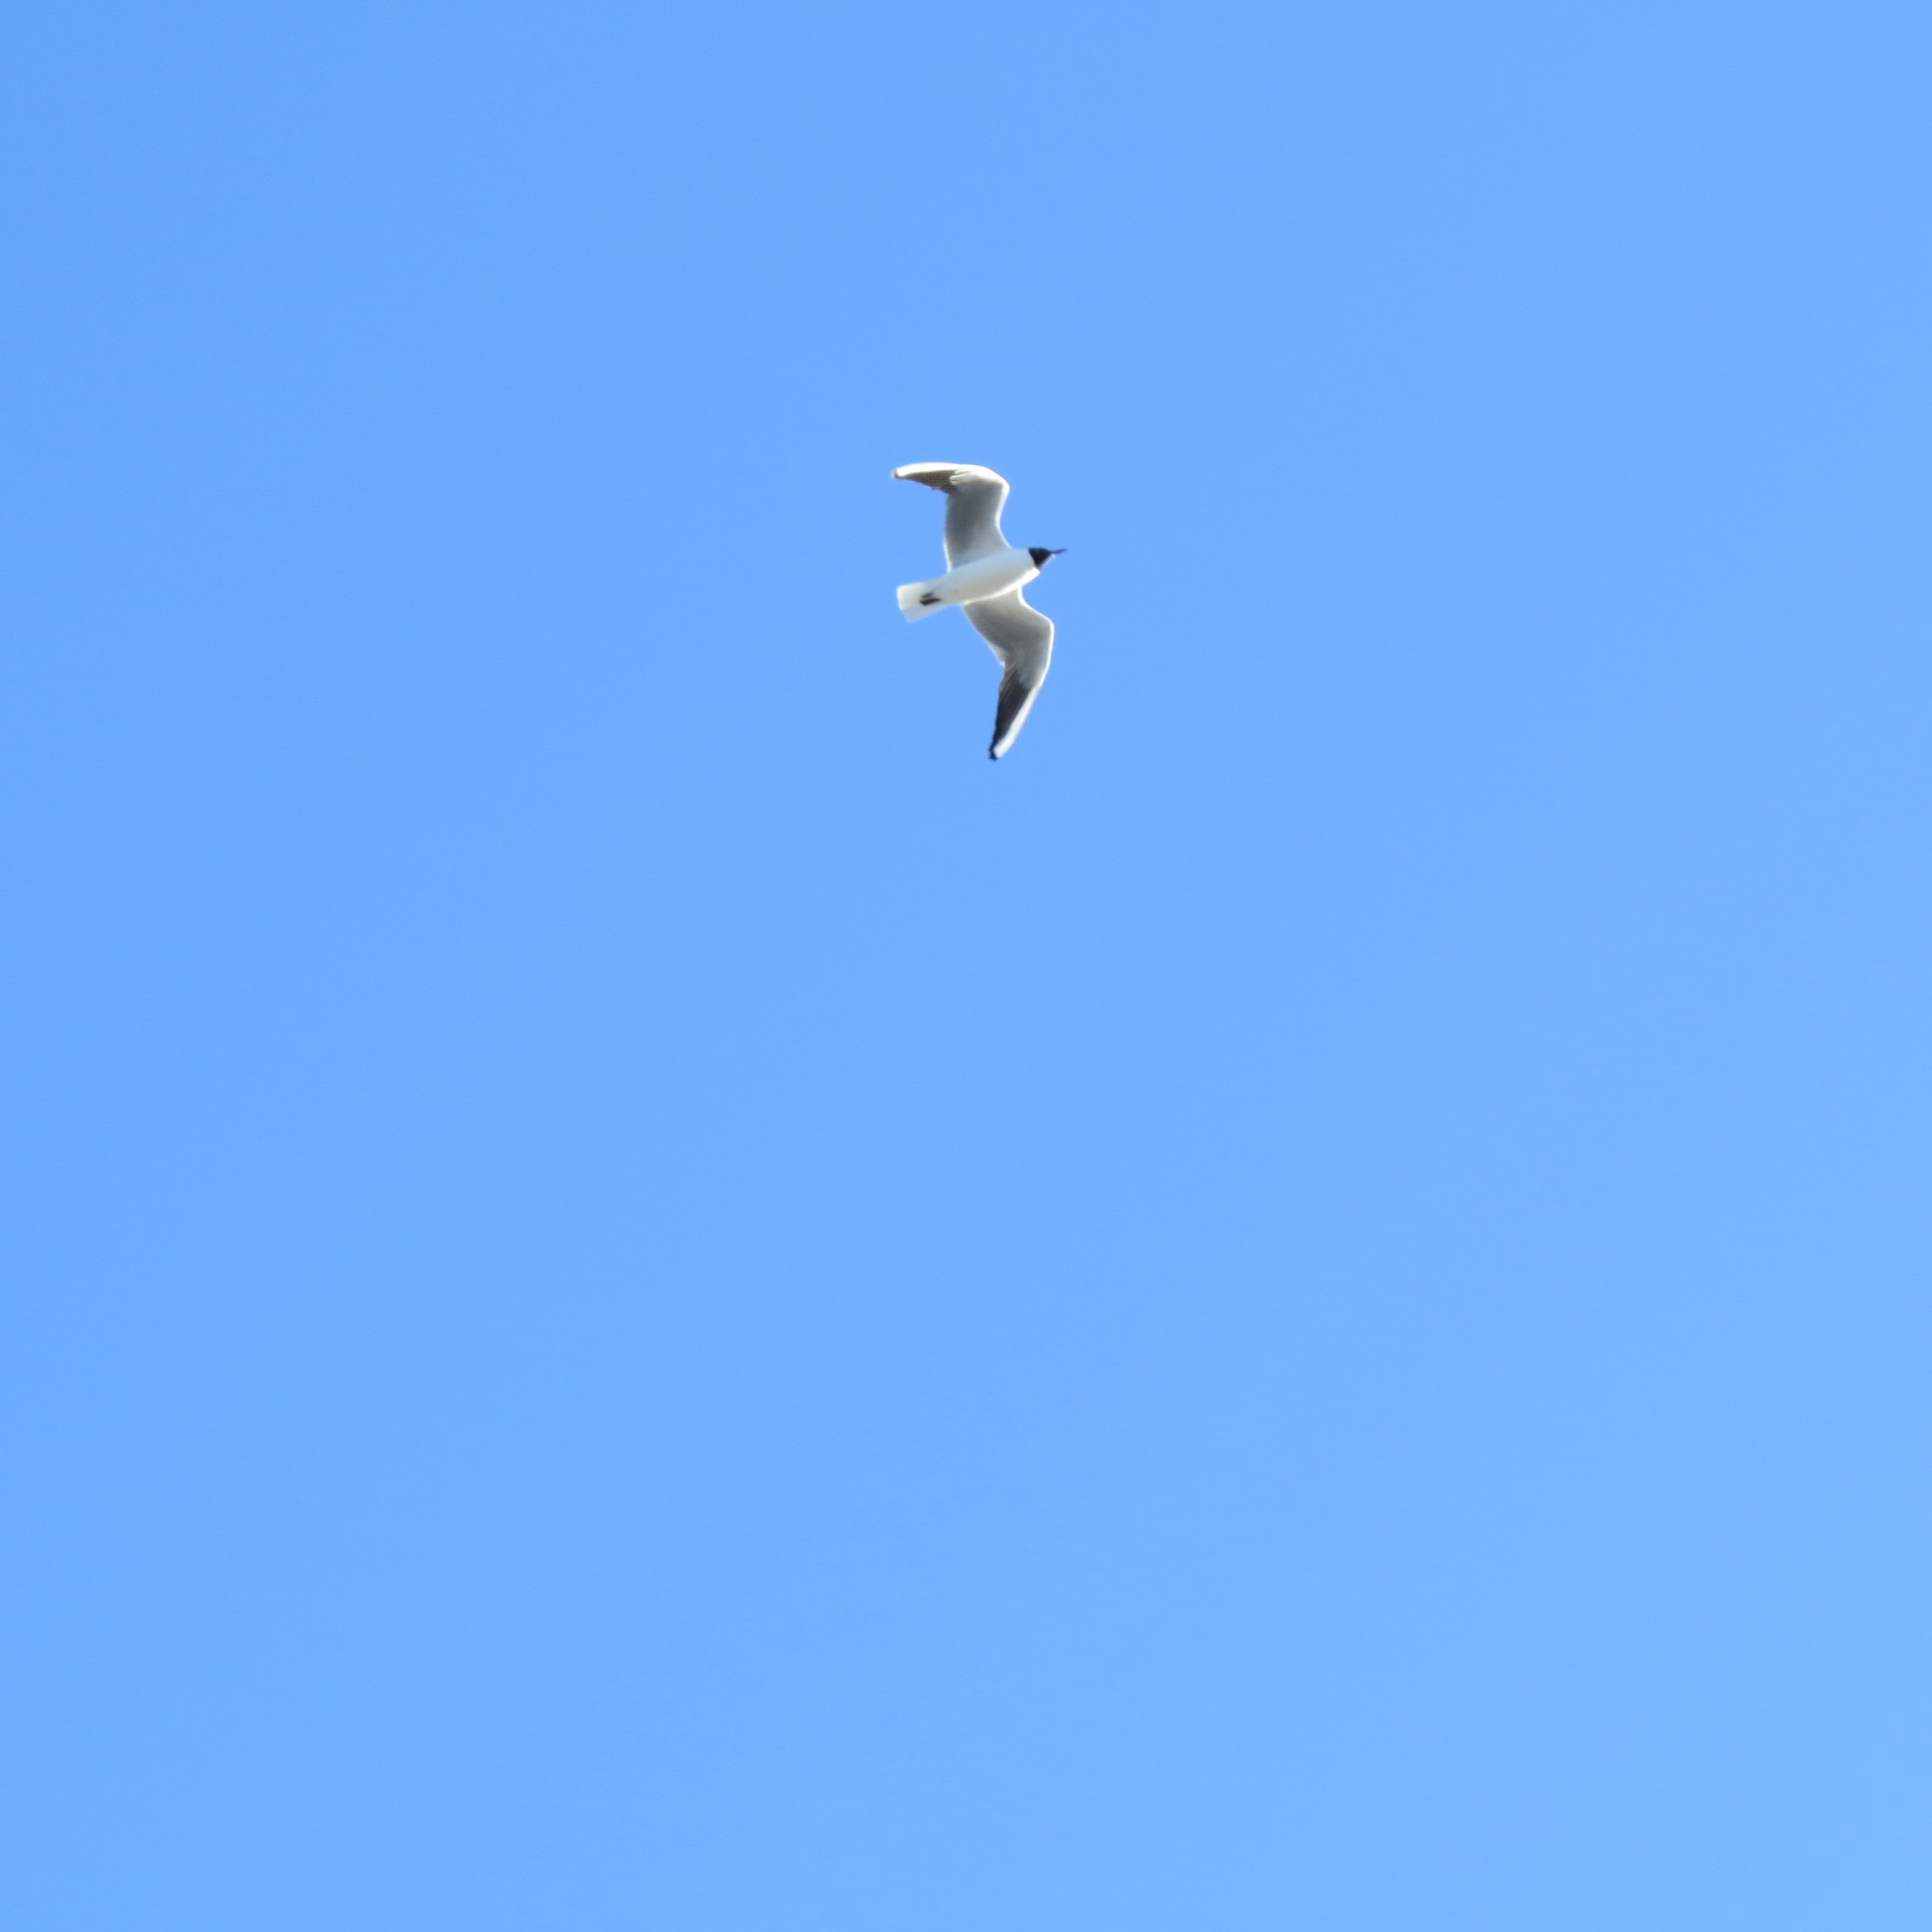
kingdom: Animalia
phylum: Chordata
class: Aves
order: Charadriiformes
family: Laridae
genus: Chroicocephalus
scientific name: Chroicocephalus ridibundus
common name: Black-headed gull
